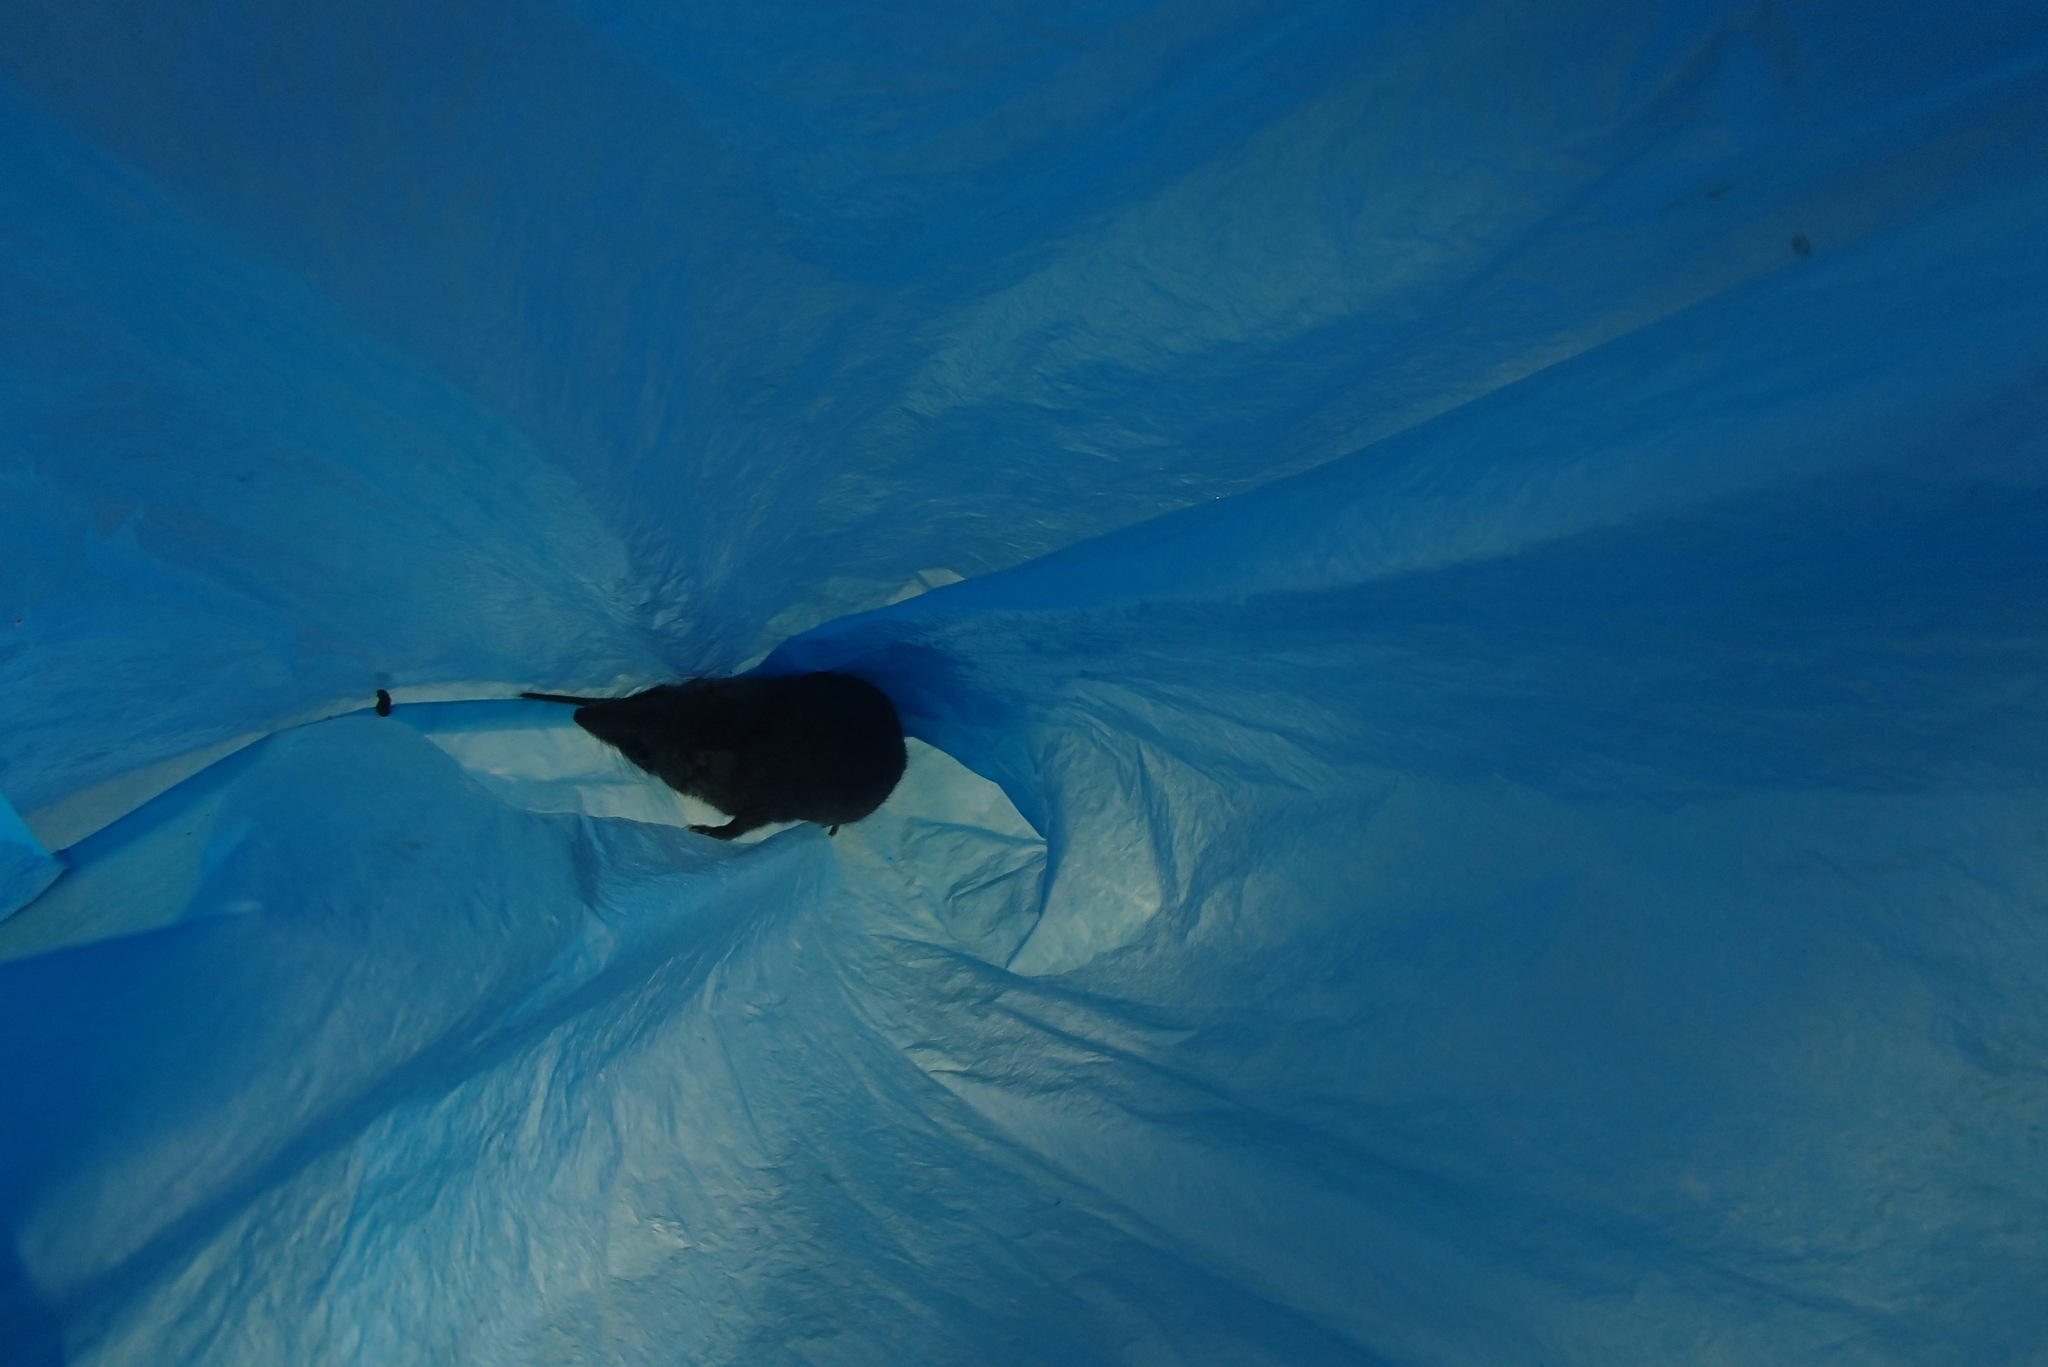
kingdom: Animalia
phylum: Chordata
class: Mammalia
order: Dasyuromorphia
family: Dasyuridae
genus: Antechinus
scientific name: Antechinus stuartii
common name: Brown antechinus
